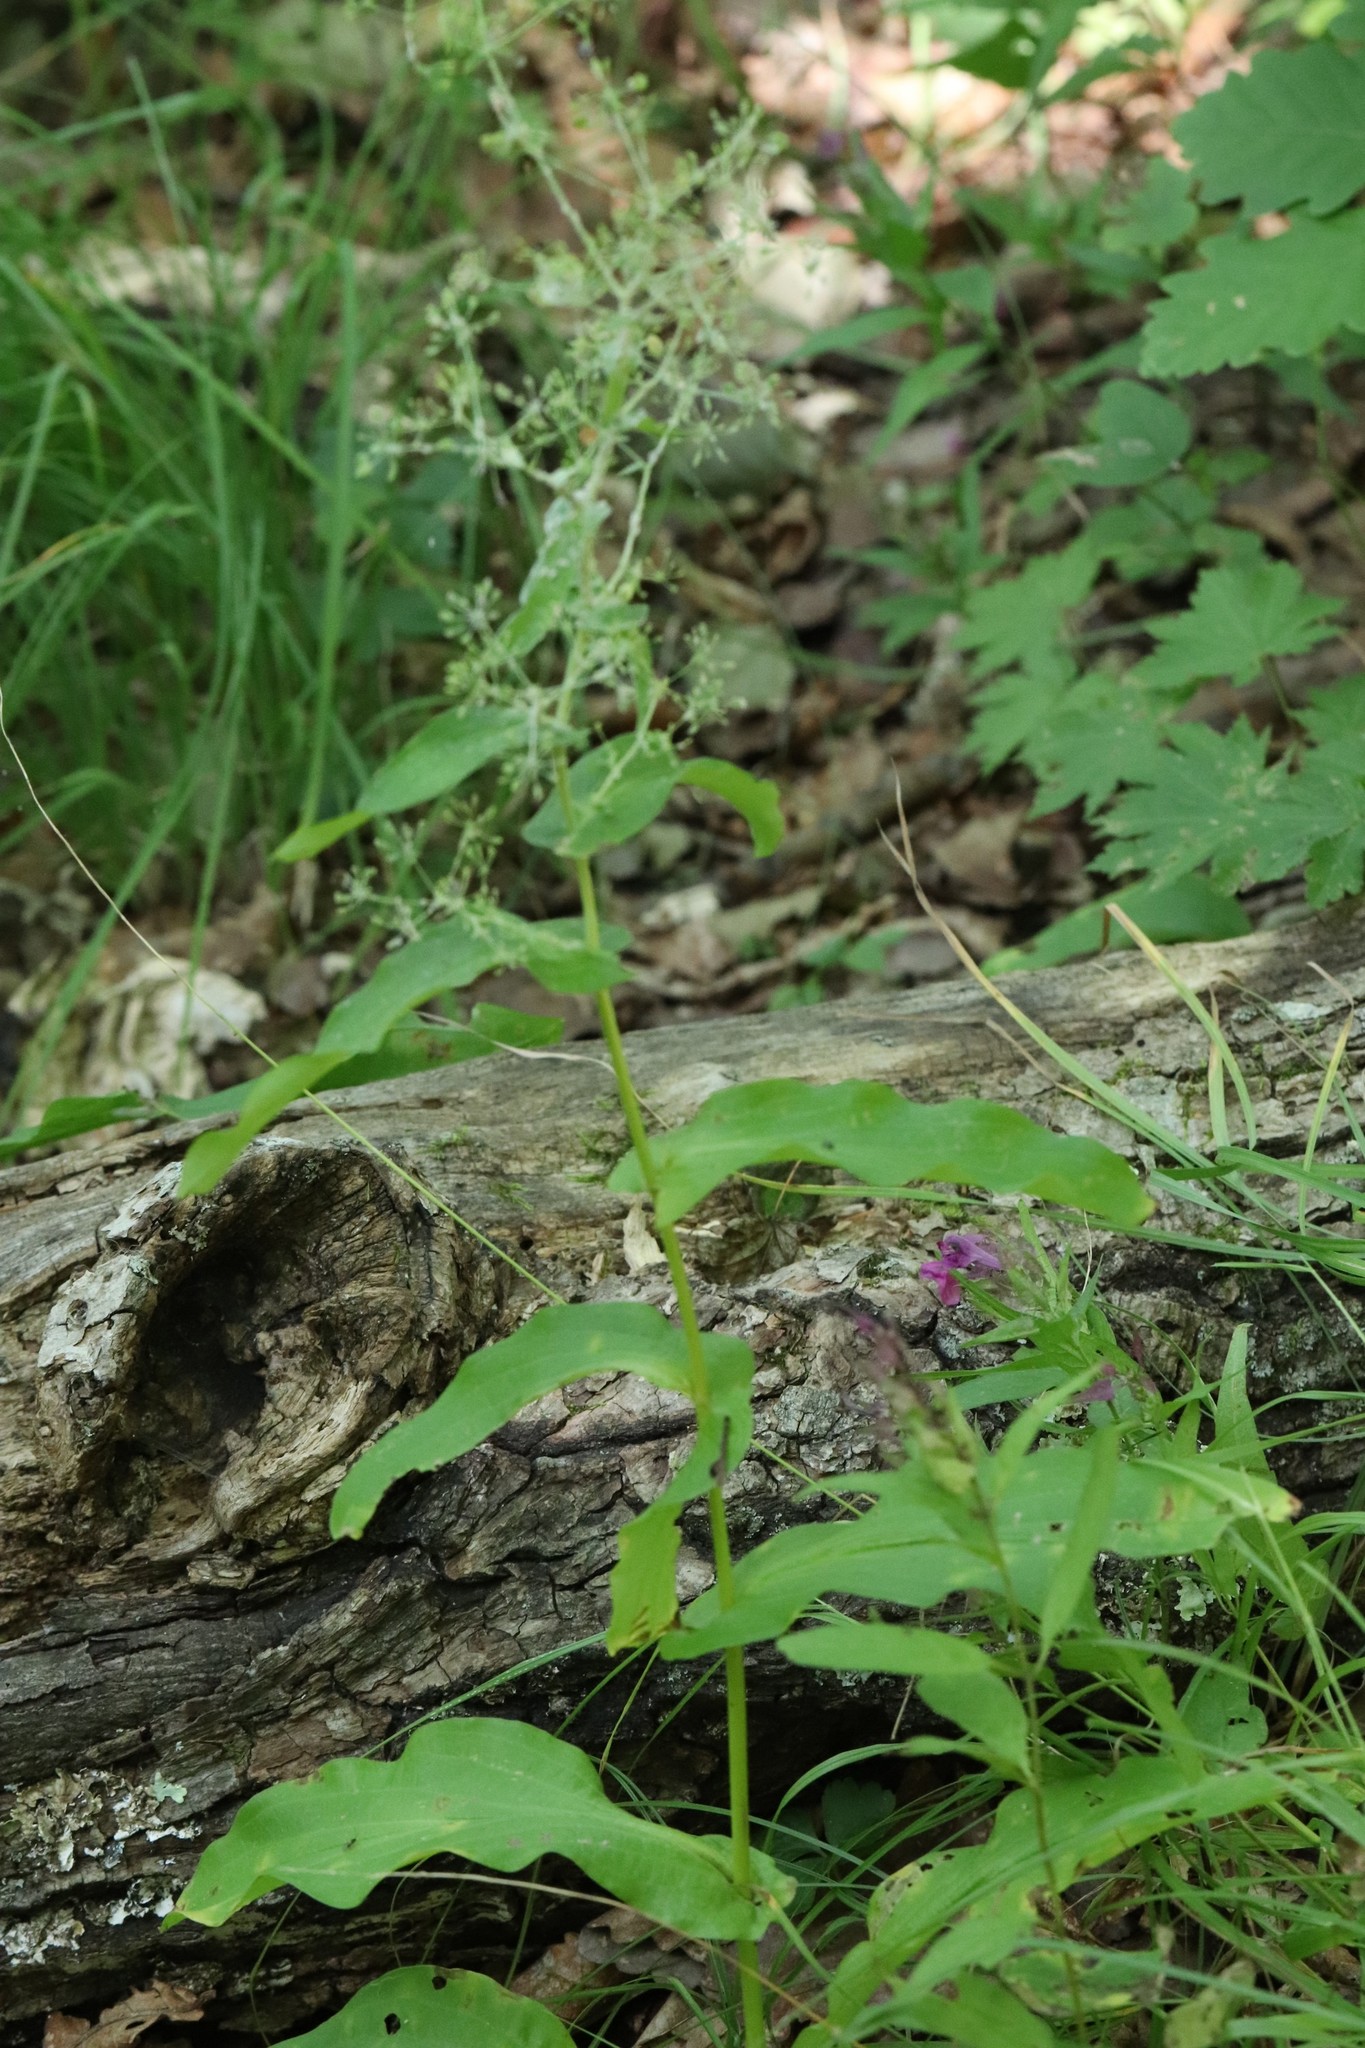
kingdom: Plantae
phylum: Tracheophyta
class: Magnoliopsida
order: Apiales
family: Apiaceae
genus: Bupleurum
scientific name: Bupleurum longiradiatum
